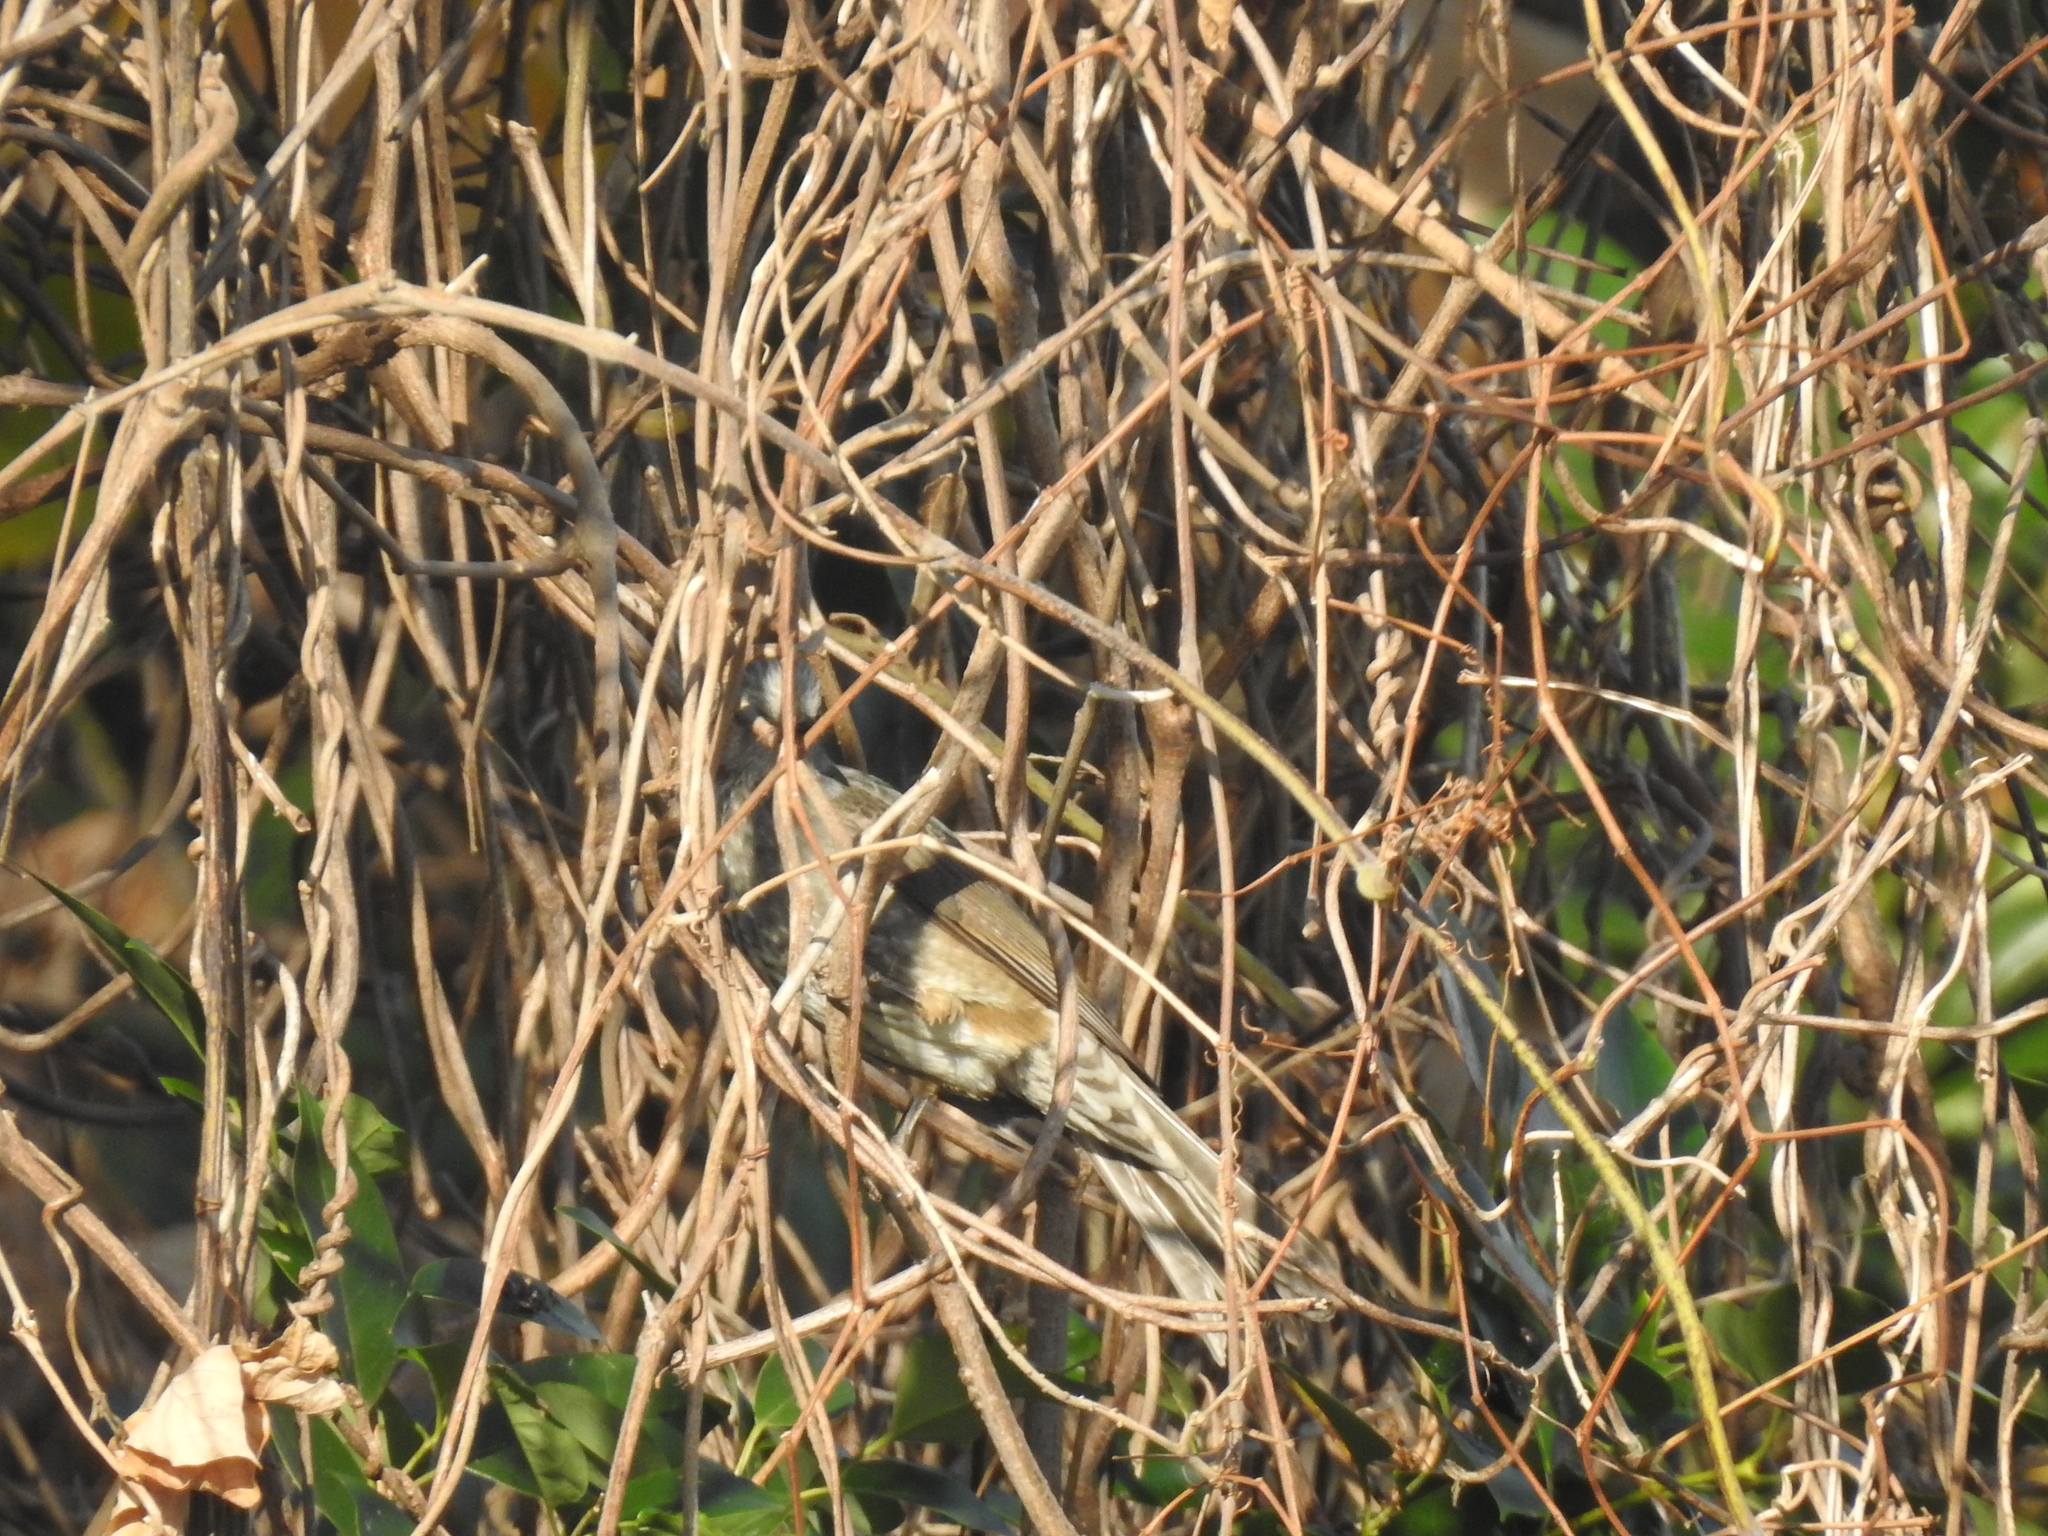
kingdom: Animalia
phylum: Chordata
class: Aves
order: Passeriformes
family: Pycnonotidae
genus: Hypsipetes
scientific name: Hypsipetes amaurotis
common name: Brown-eared bulbul
